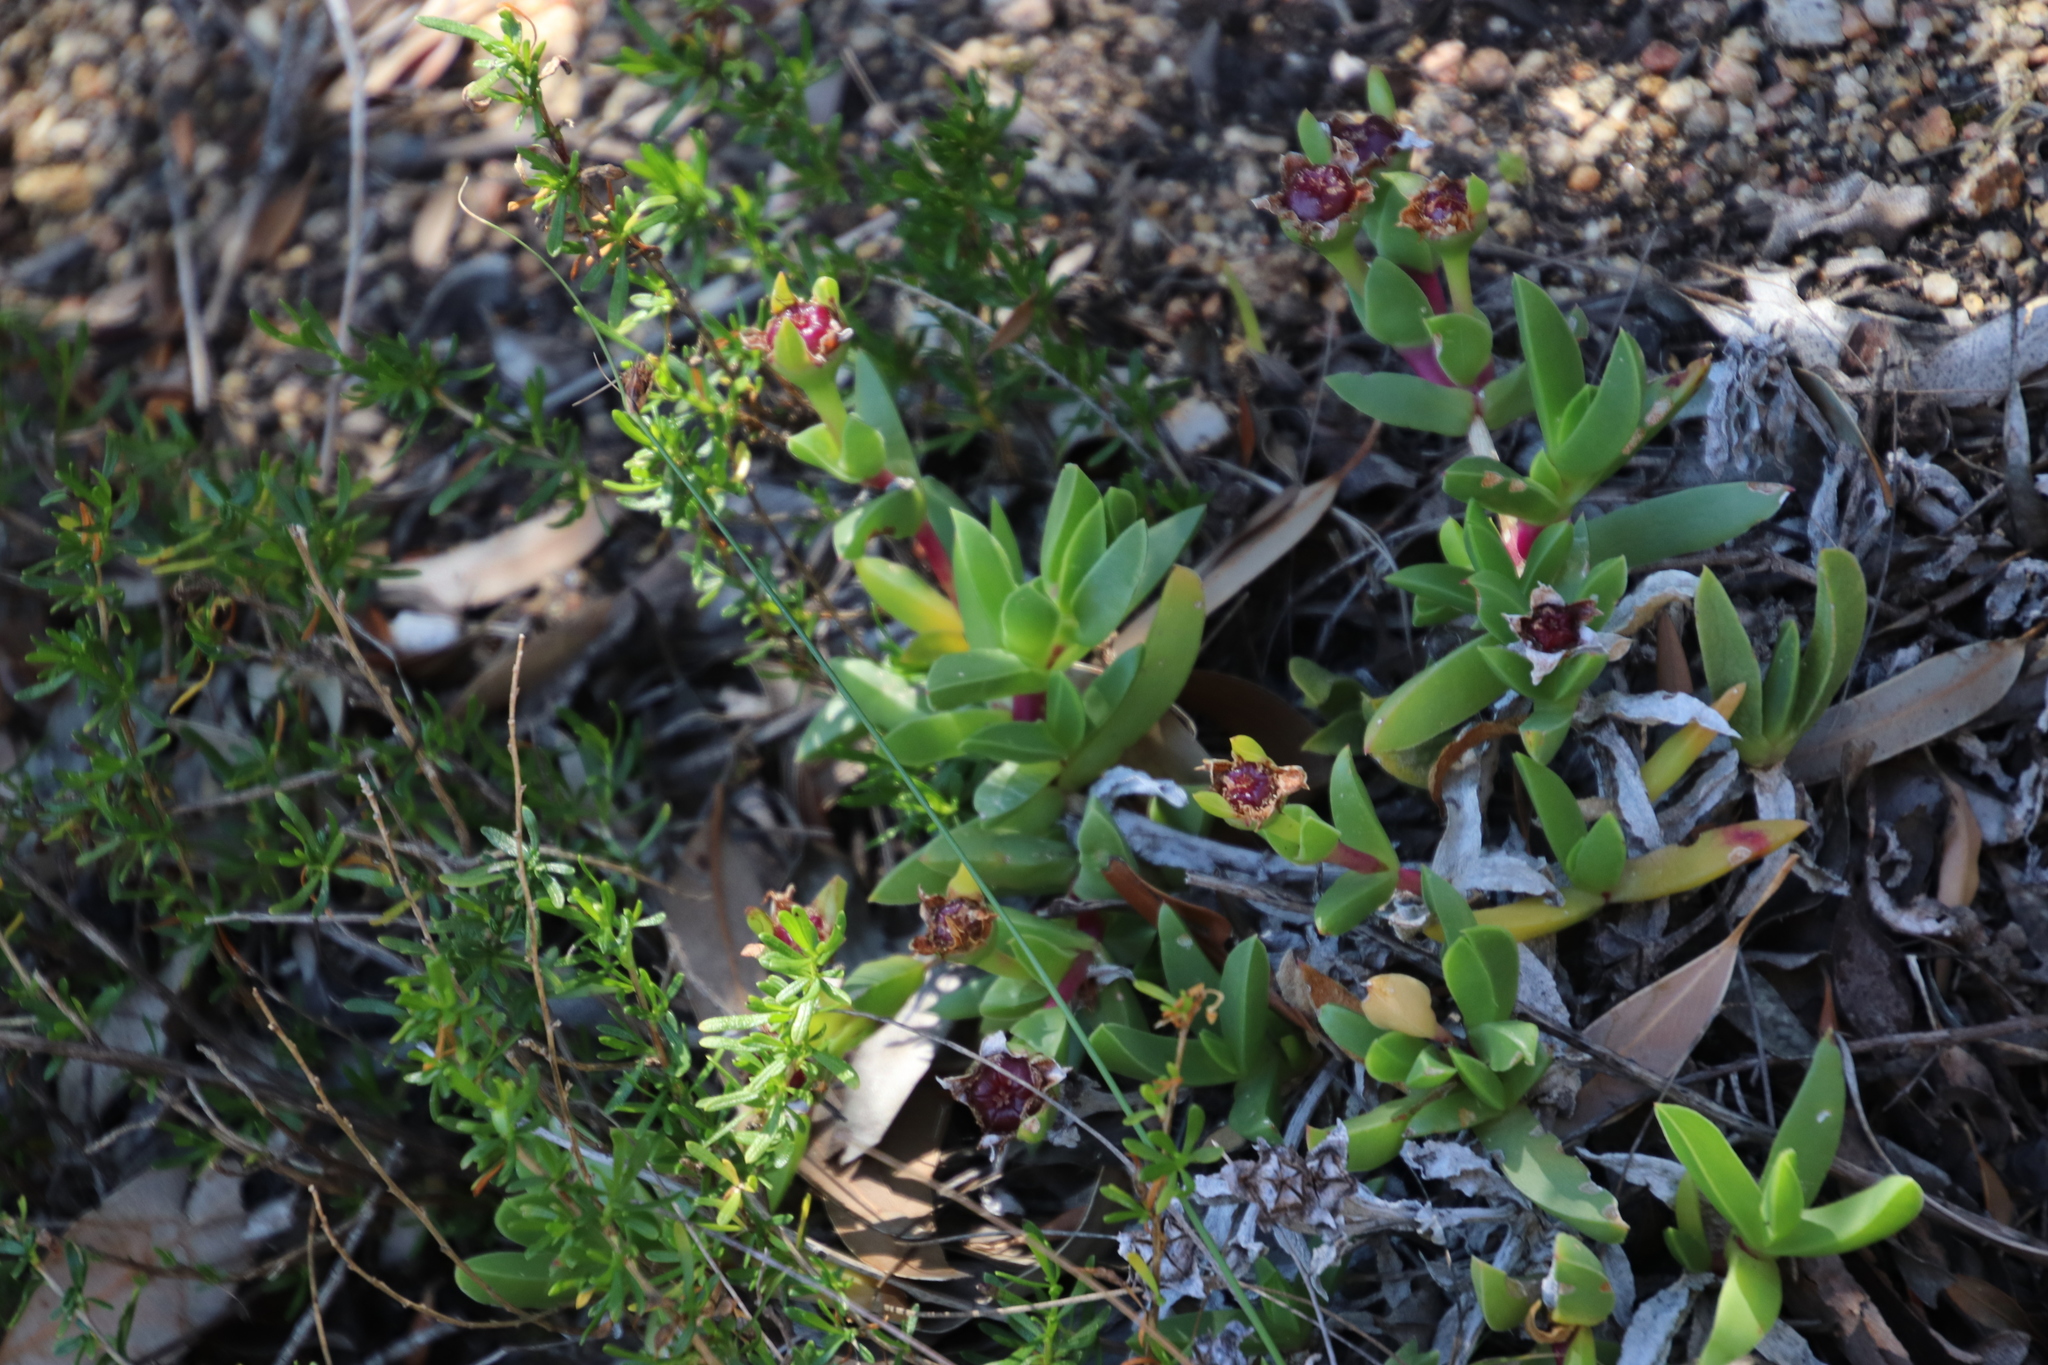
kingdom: Plantae
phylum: Tracheophyta
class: Magnoliopsida
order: Caryophyllales
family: Aizoaceae
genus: Amphibolia
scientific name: Amphibolia laevis
